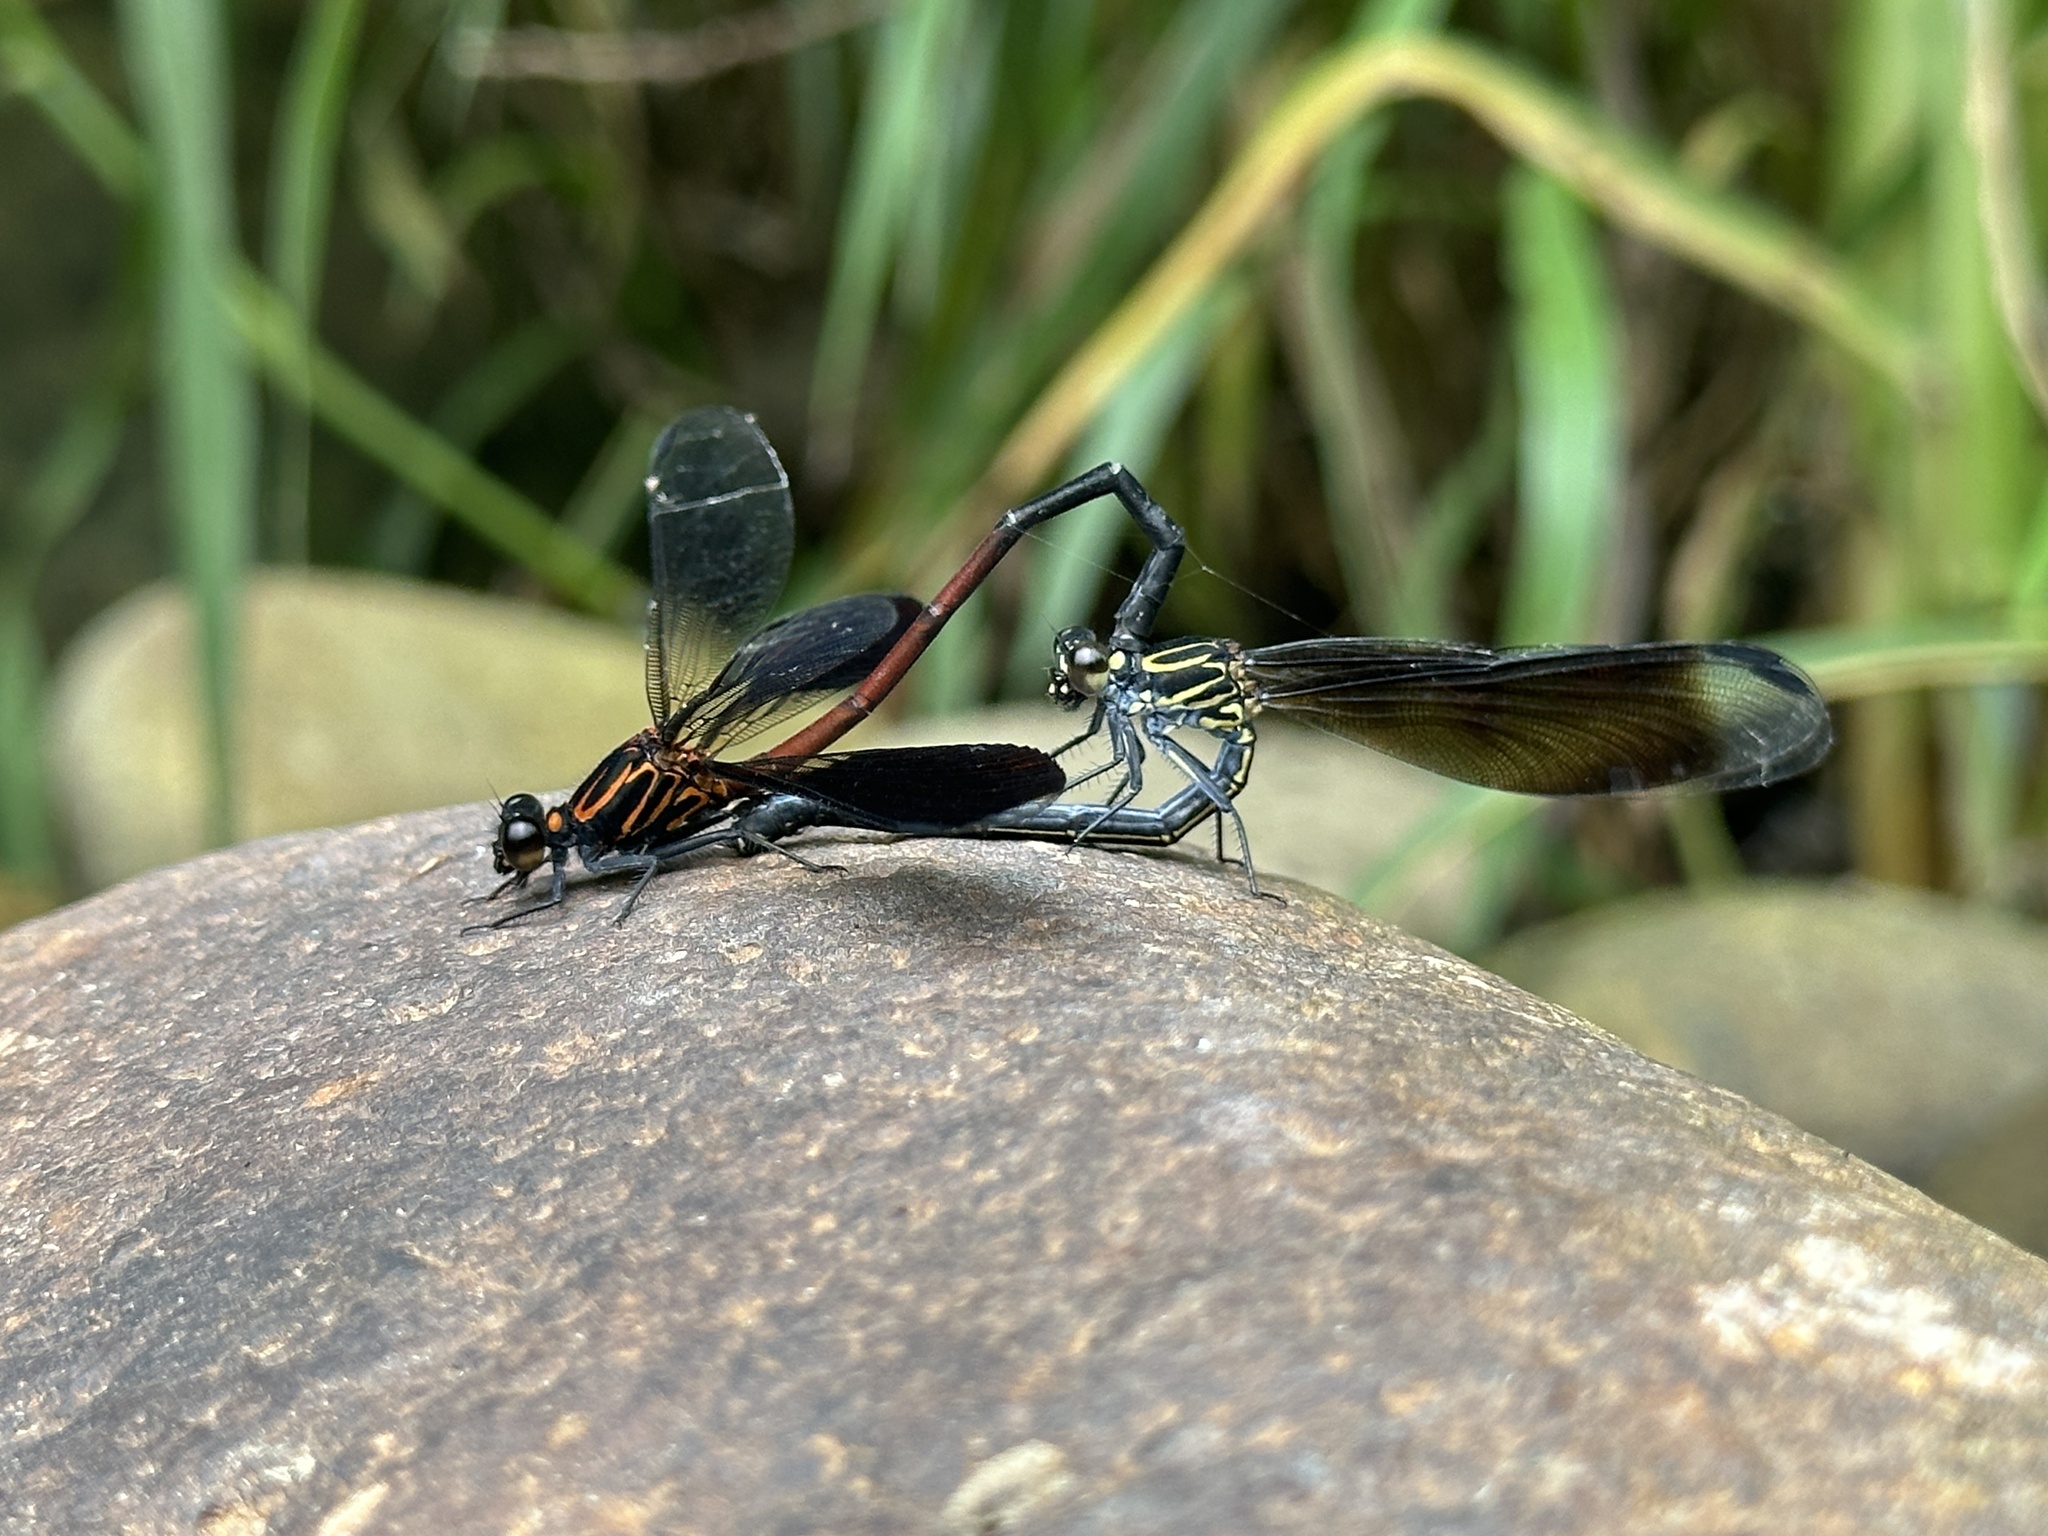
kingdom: Animalia
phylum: Arthropoda
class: Insecta
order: Odonata
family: Euphaeidae
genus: Euphaea
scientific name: Euphaea formosa
